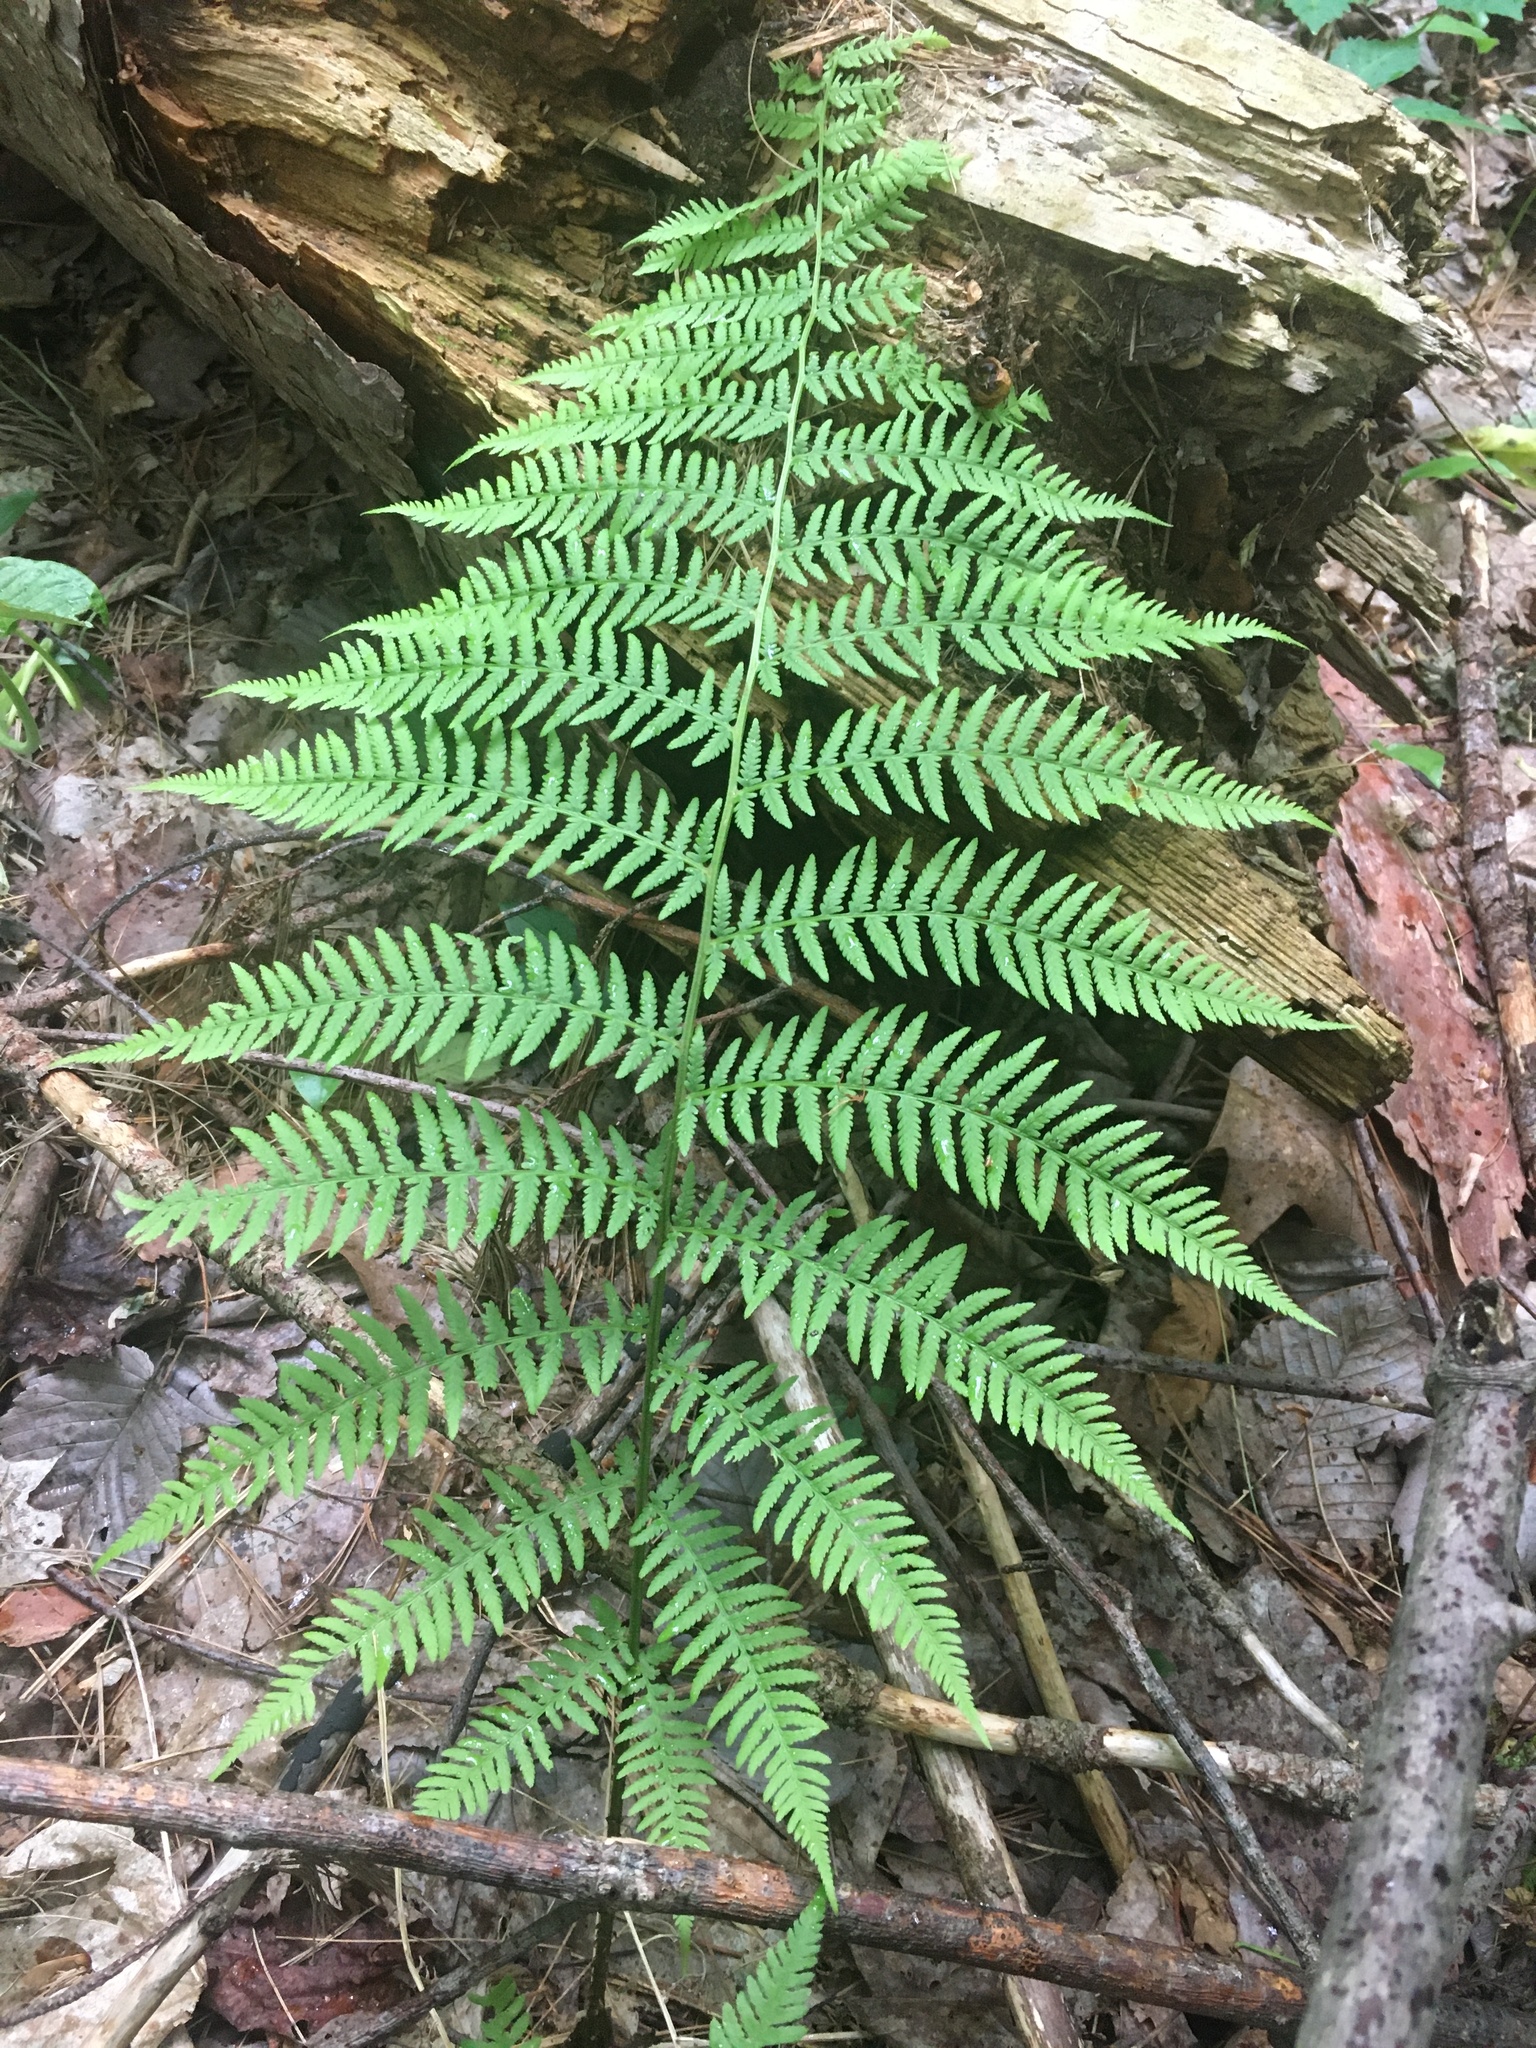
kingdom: Plantae
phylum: Tracheophyta
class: Polypodiopsida
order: Polypodiales
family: Athyriaceae
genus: Athyrium
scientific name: Athyrium angustum
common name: Northern lady fern
